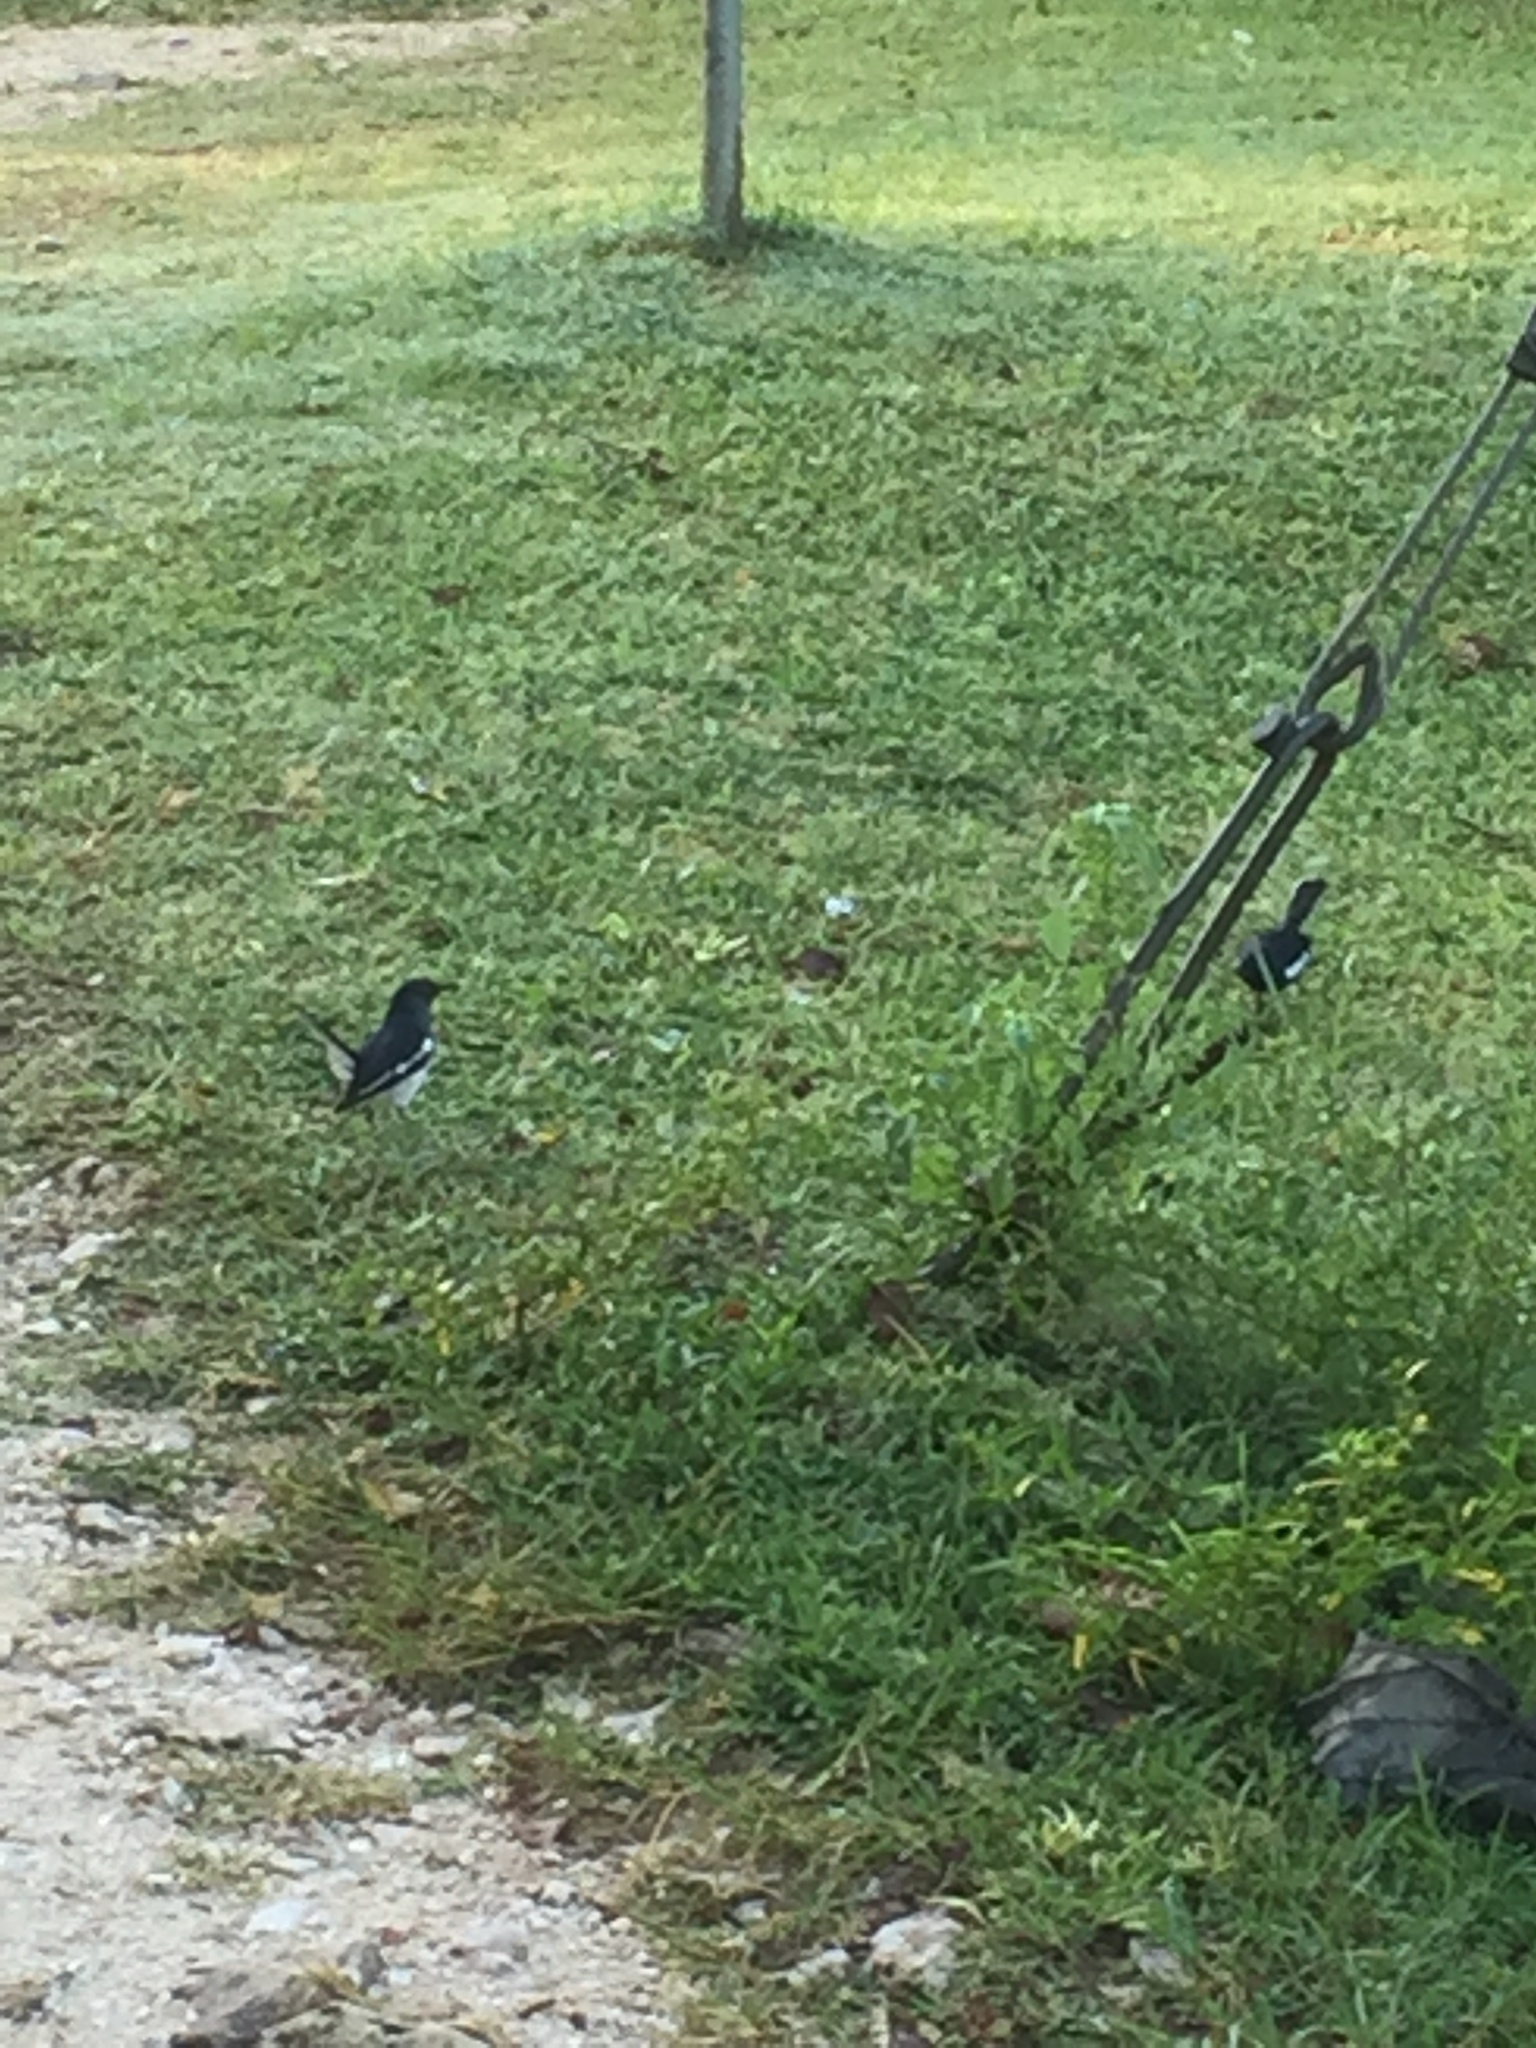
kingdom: Animalia
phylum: Chordata
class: Aves
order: Passeriformes
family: Muscicapidae
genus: Copsychus
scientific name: Copsychus saularis
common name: Oriental magpie-robin
